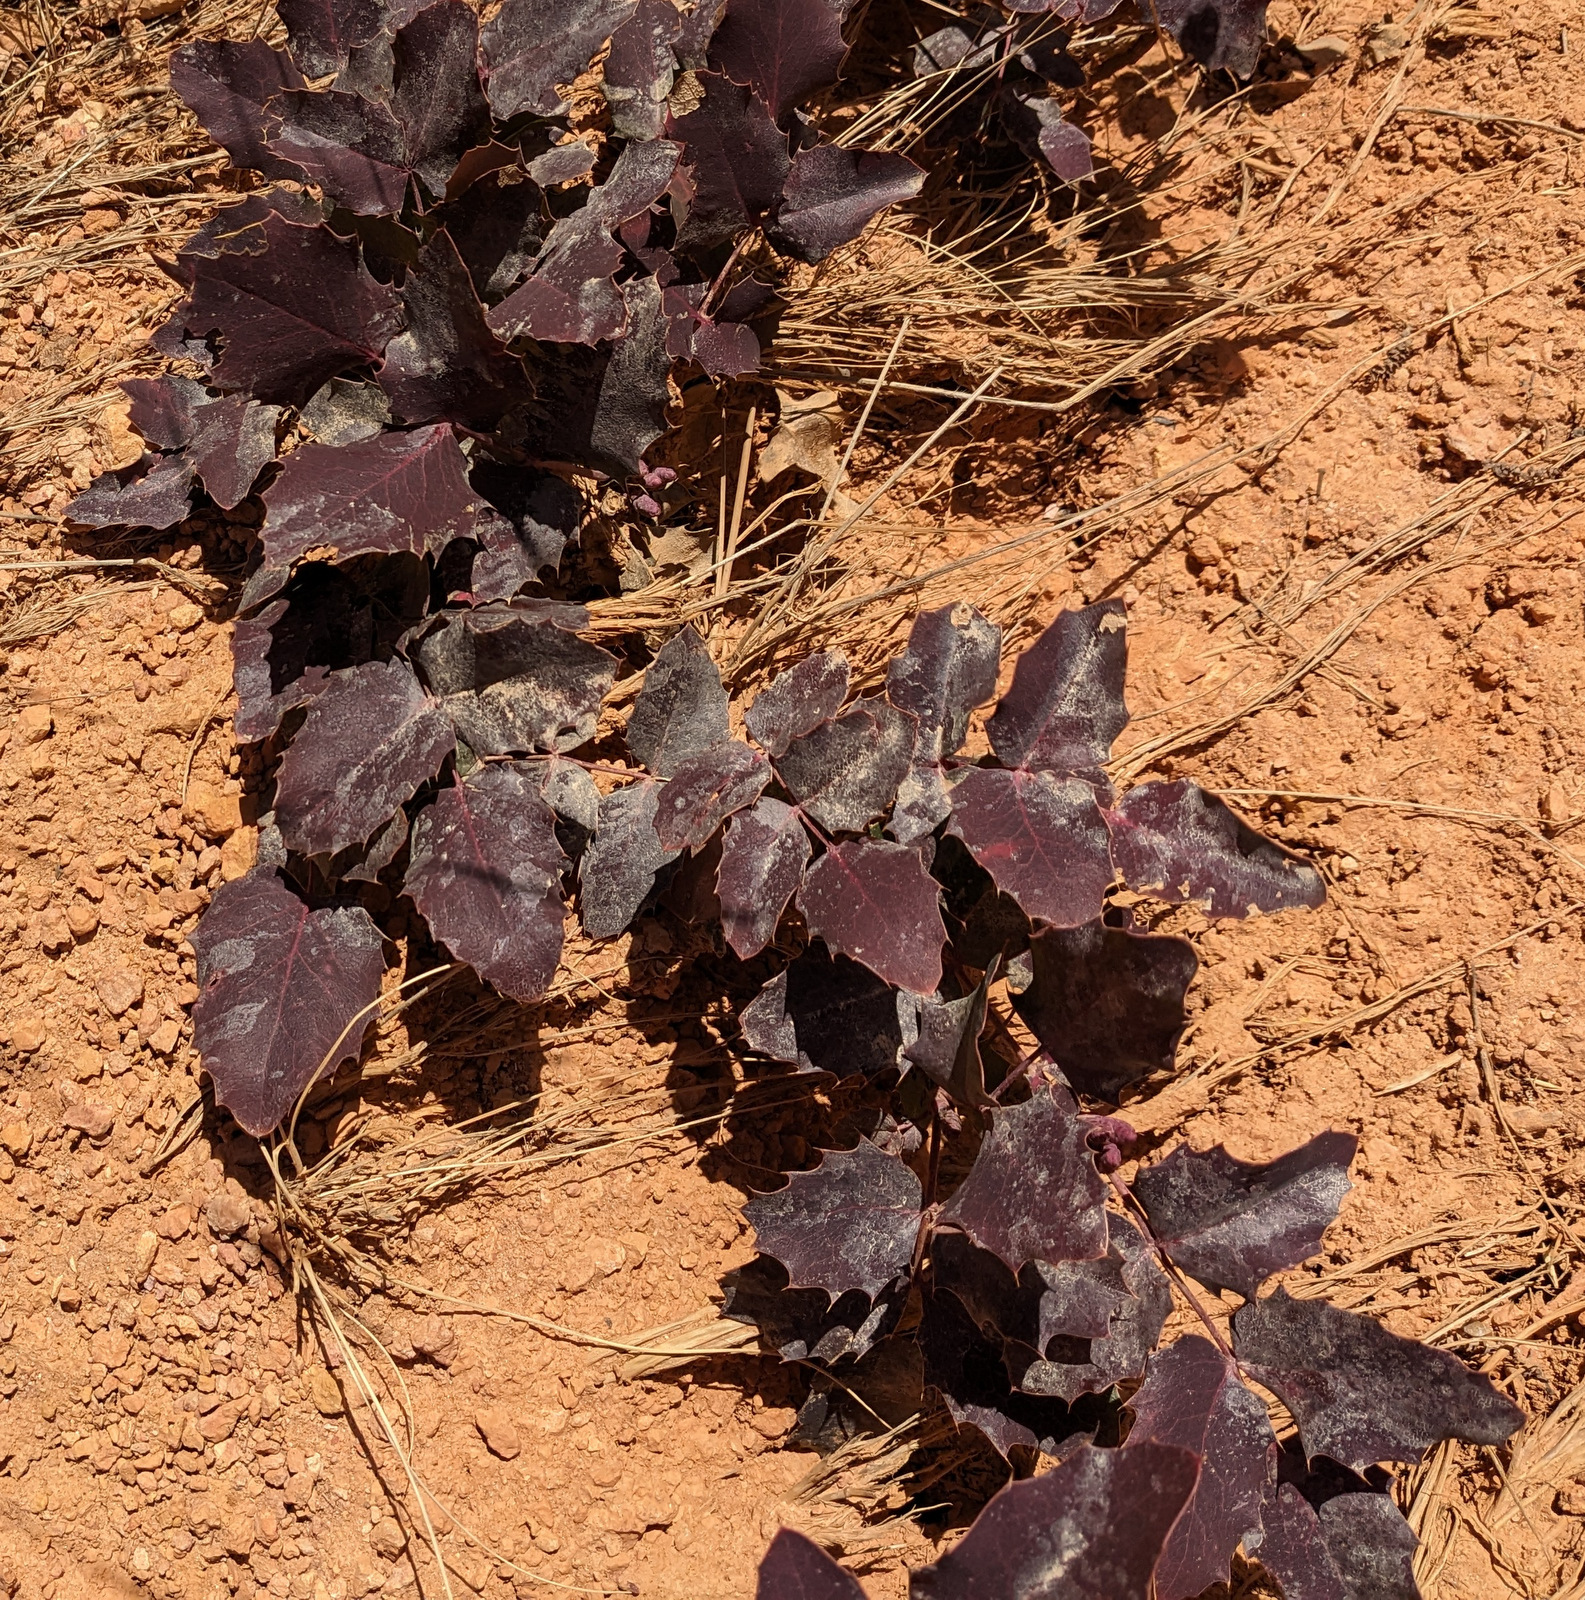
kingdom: Plantae
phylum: Tracheophyta
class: Magnoliopsida
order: Ranunculales
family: Berberidaceae
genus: Mahonia
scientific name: Mahonia repens
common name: Creeping oregon-grape
